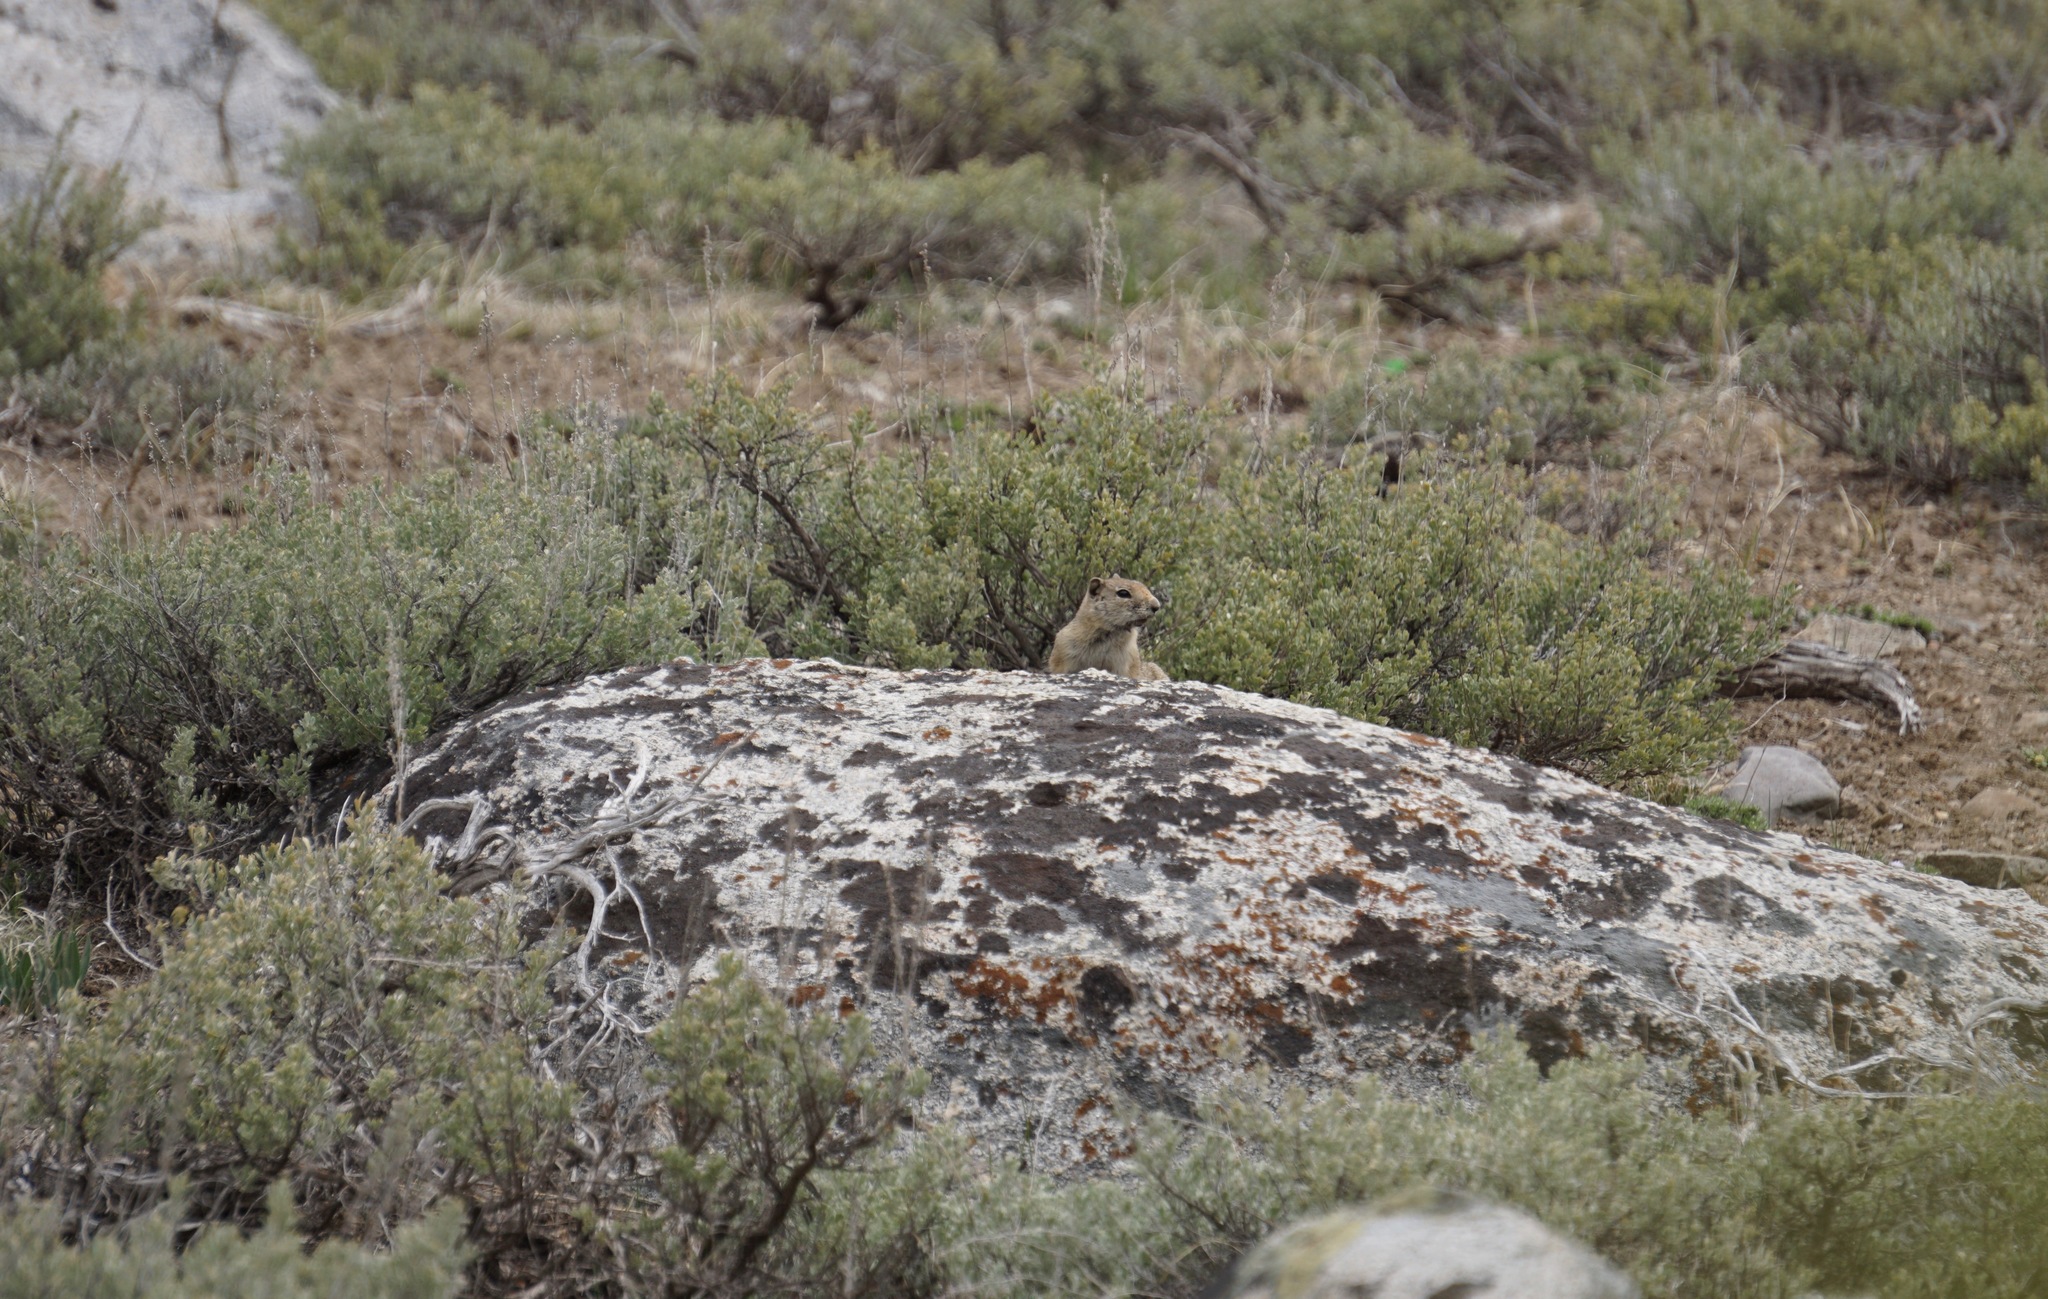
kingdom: Animalia
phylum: Chordata
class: Mammalia
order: Rodentia
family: Sciuridae
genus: Urocitellus
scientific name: Urocitellus beldingi
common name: Belding's ground squirrel
